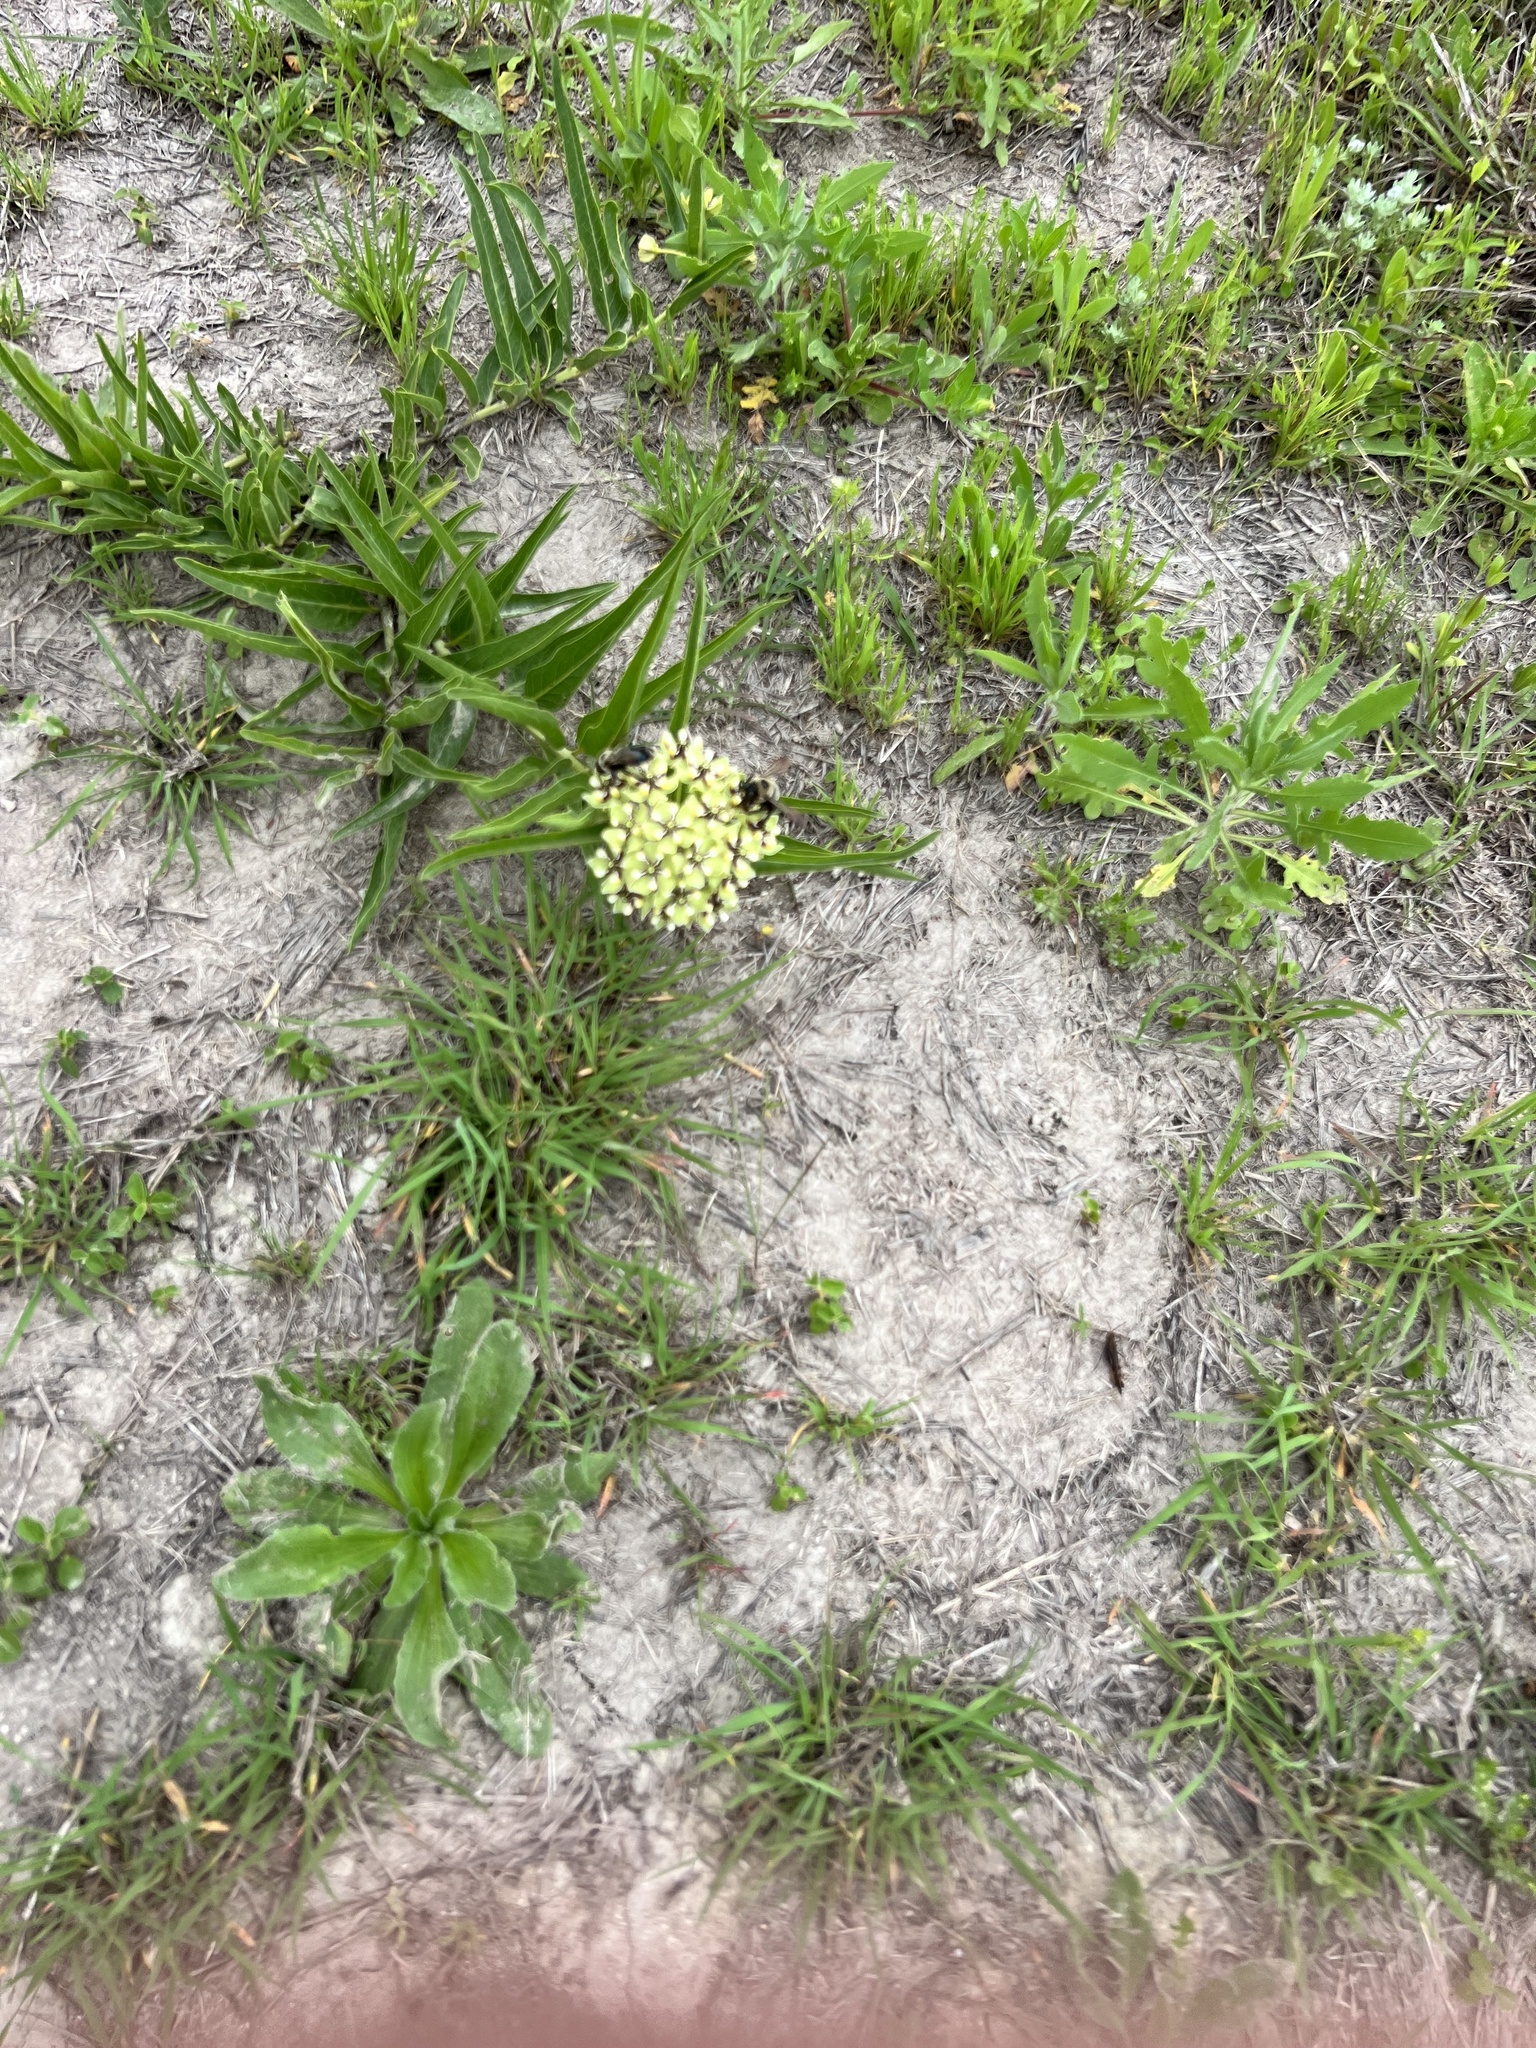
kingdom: Plantae
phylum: Tracheophyta
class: Magnoliopsida
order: Gentianales
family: Apocynaceae
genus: Asclepias
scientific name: Asclepias asperula
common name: Antelope horns
